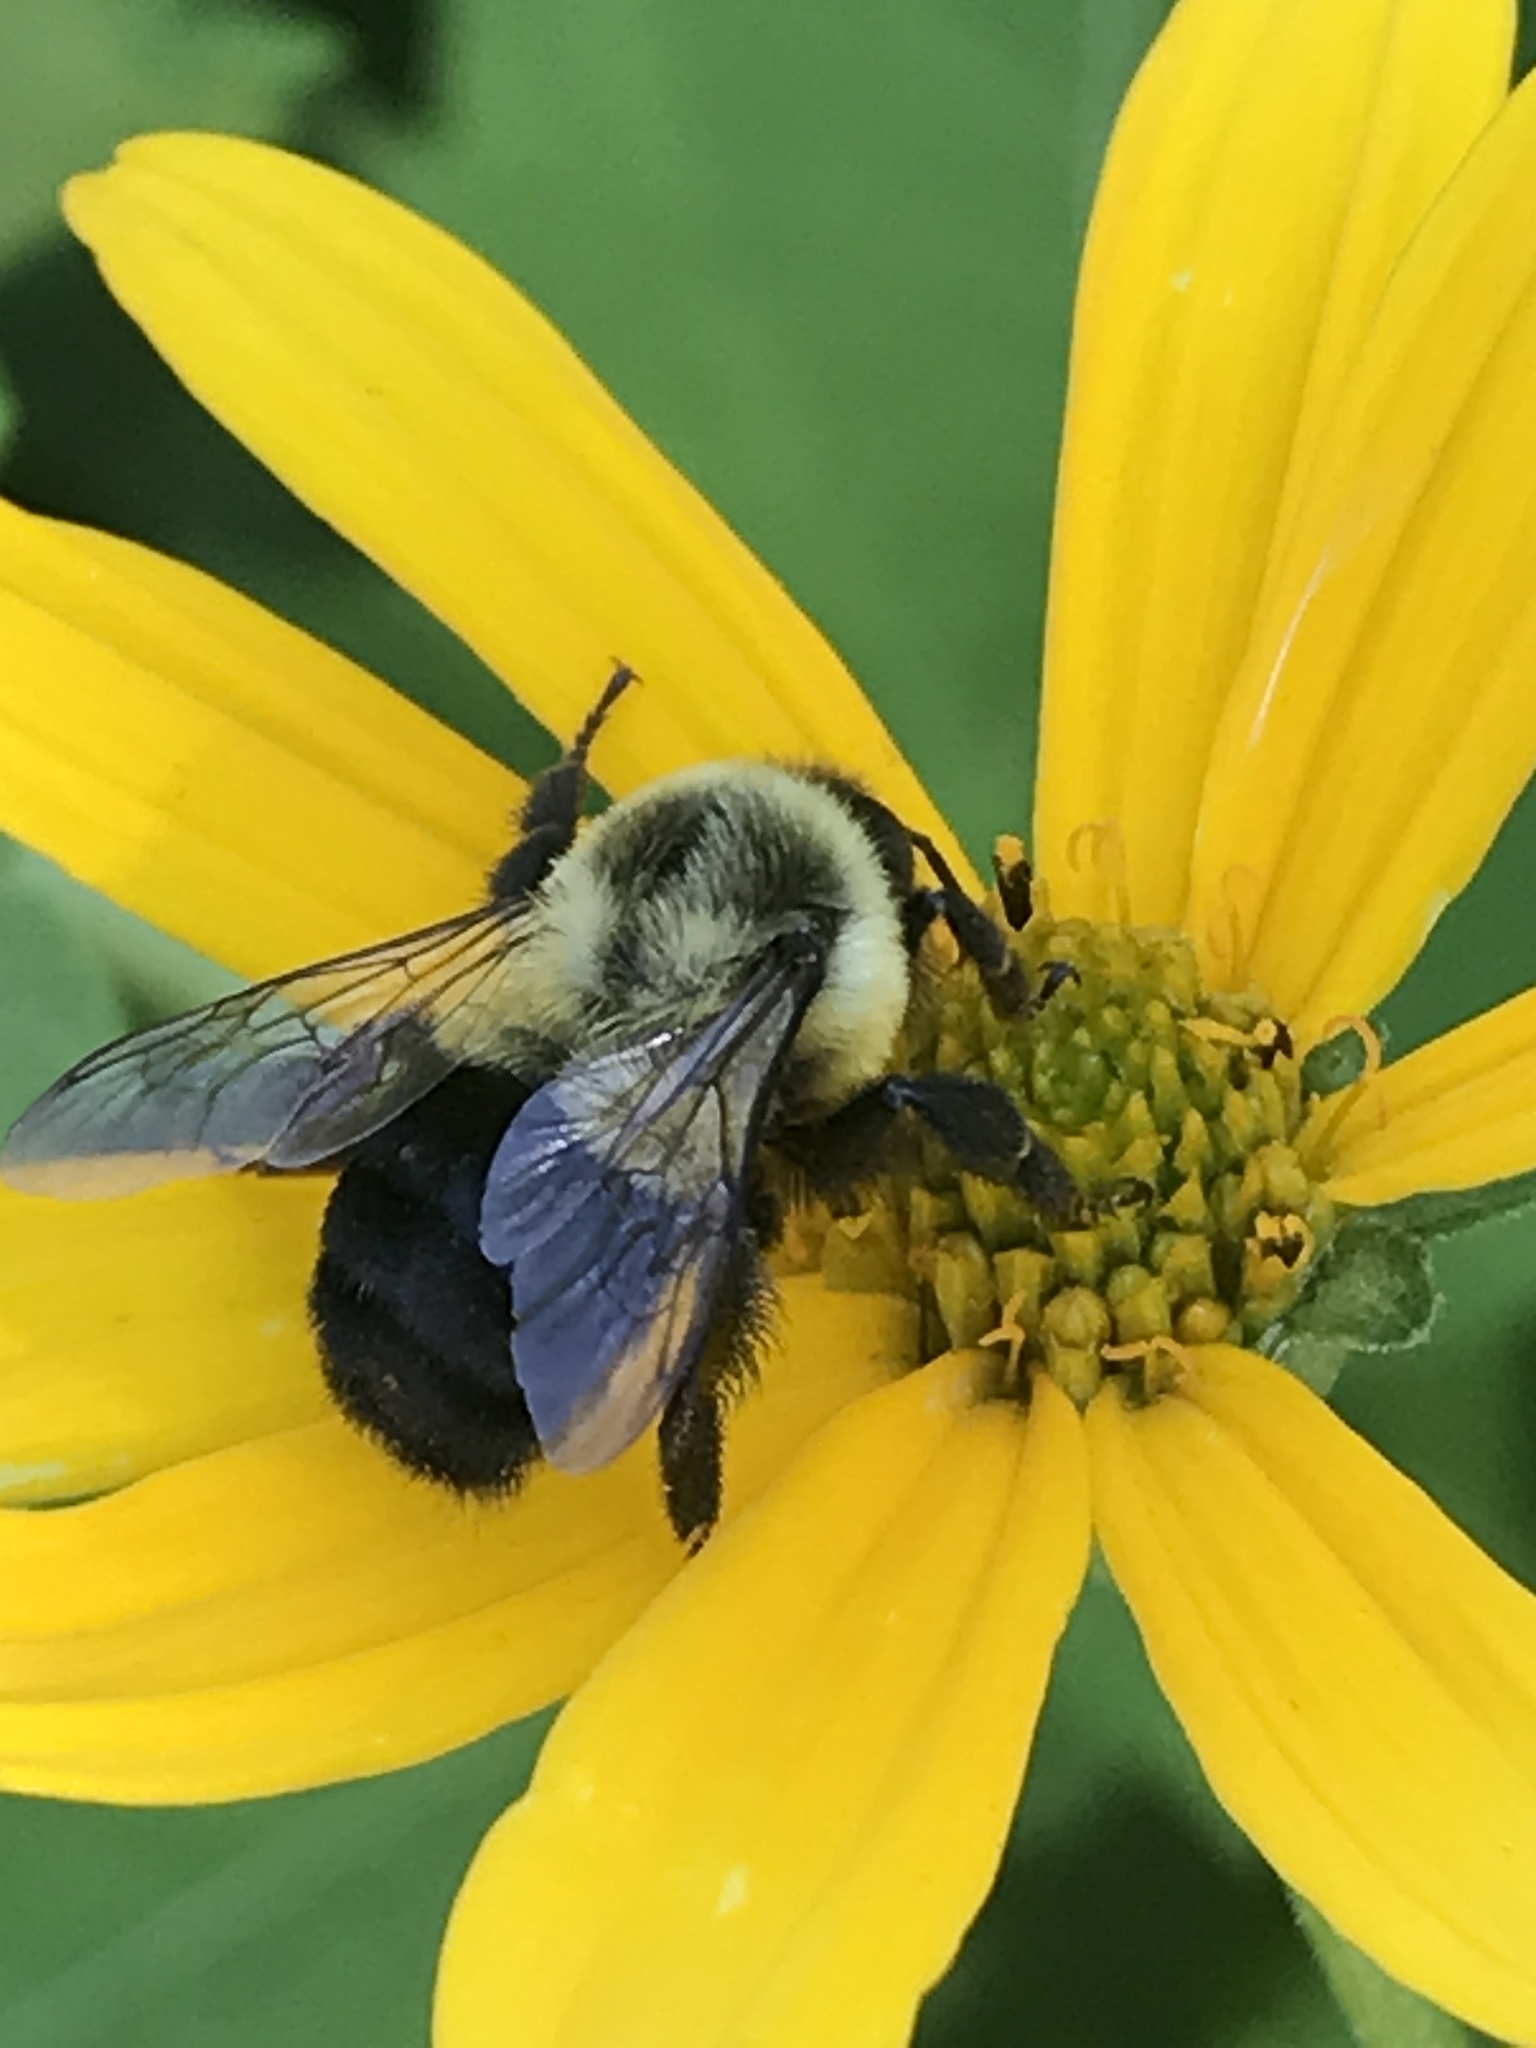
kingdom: Animalia
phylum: Arthropoda
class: Insecta
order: Hymenoptera
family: Apidae
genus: Bombus
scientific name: Bombus impatiens
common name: Common eastern bumble bee
